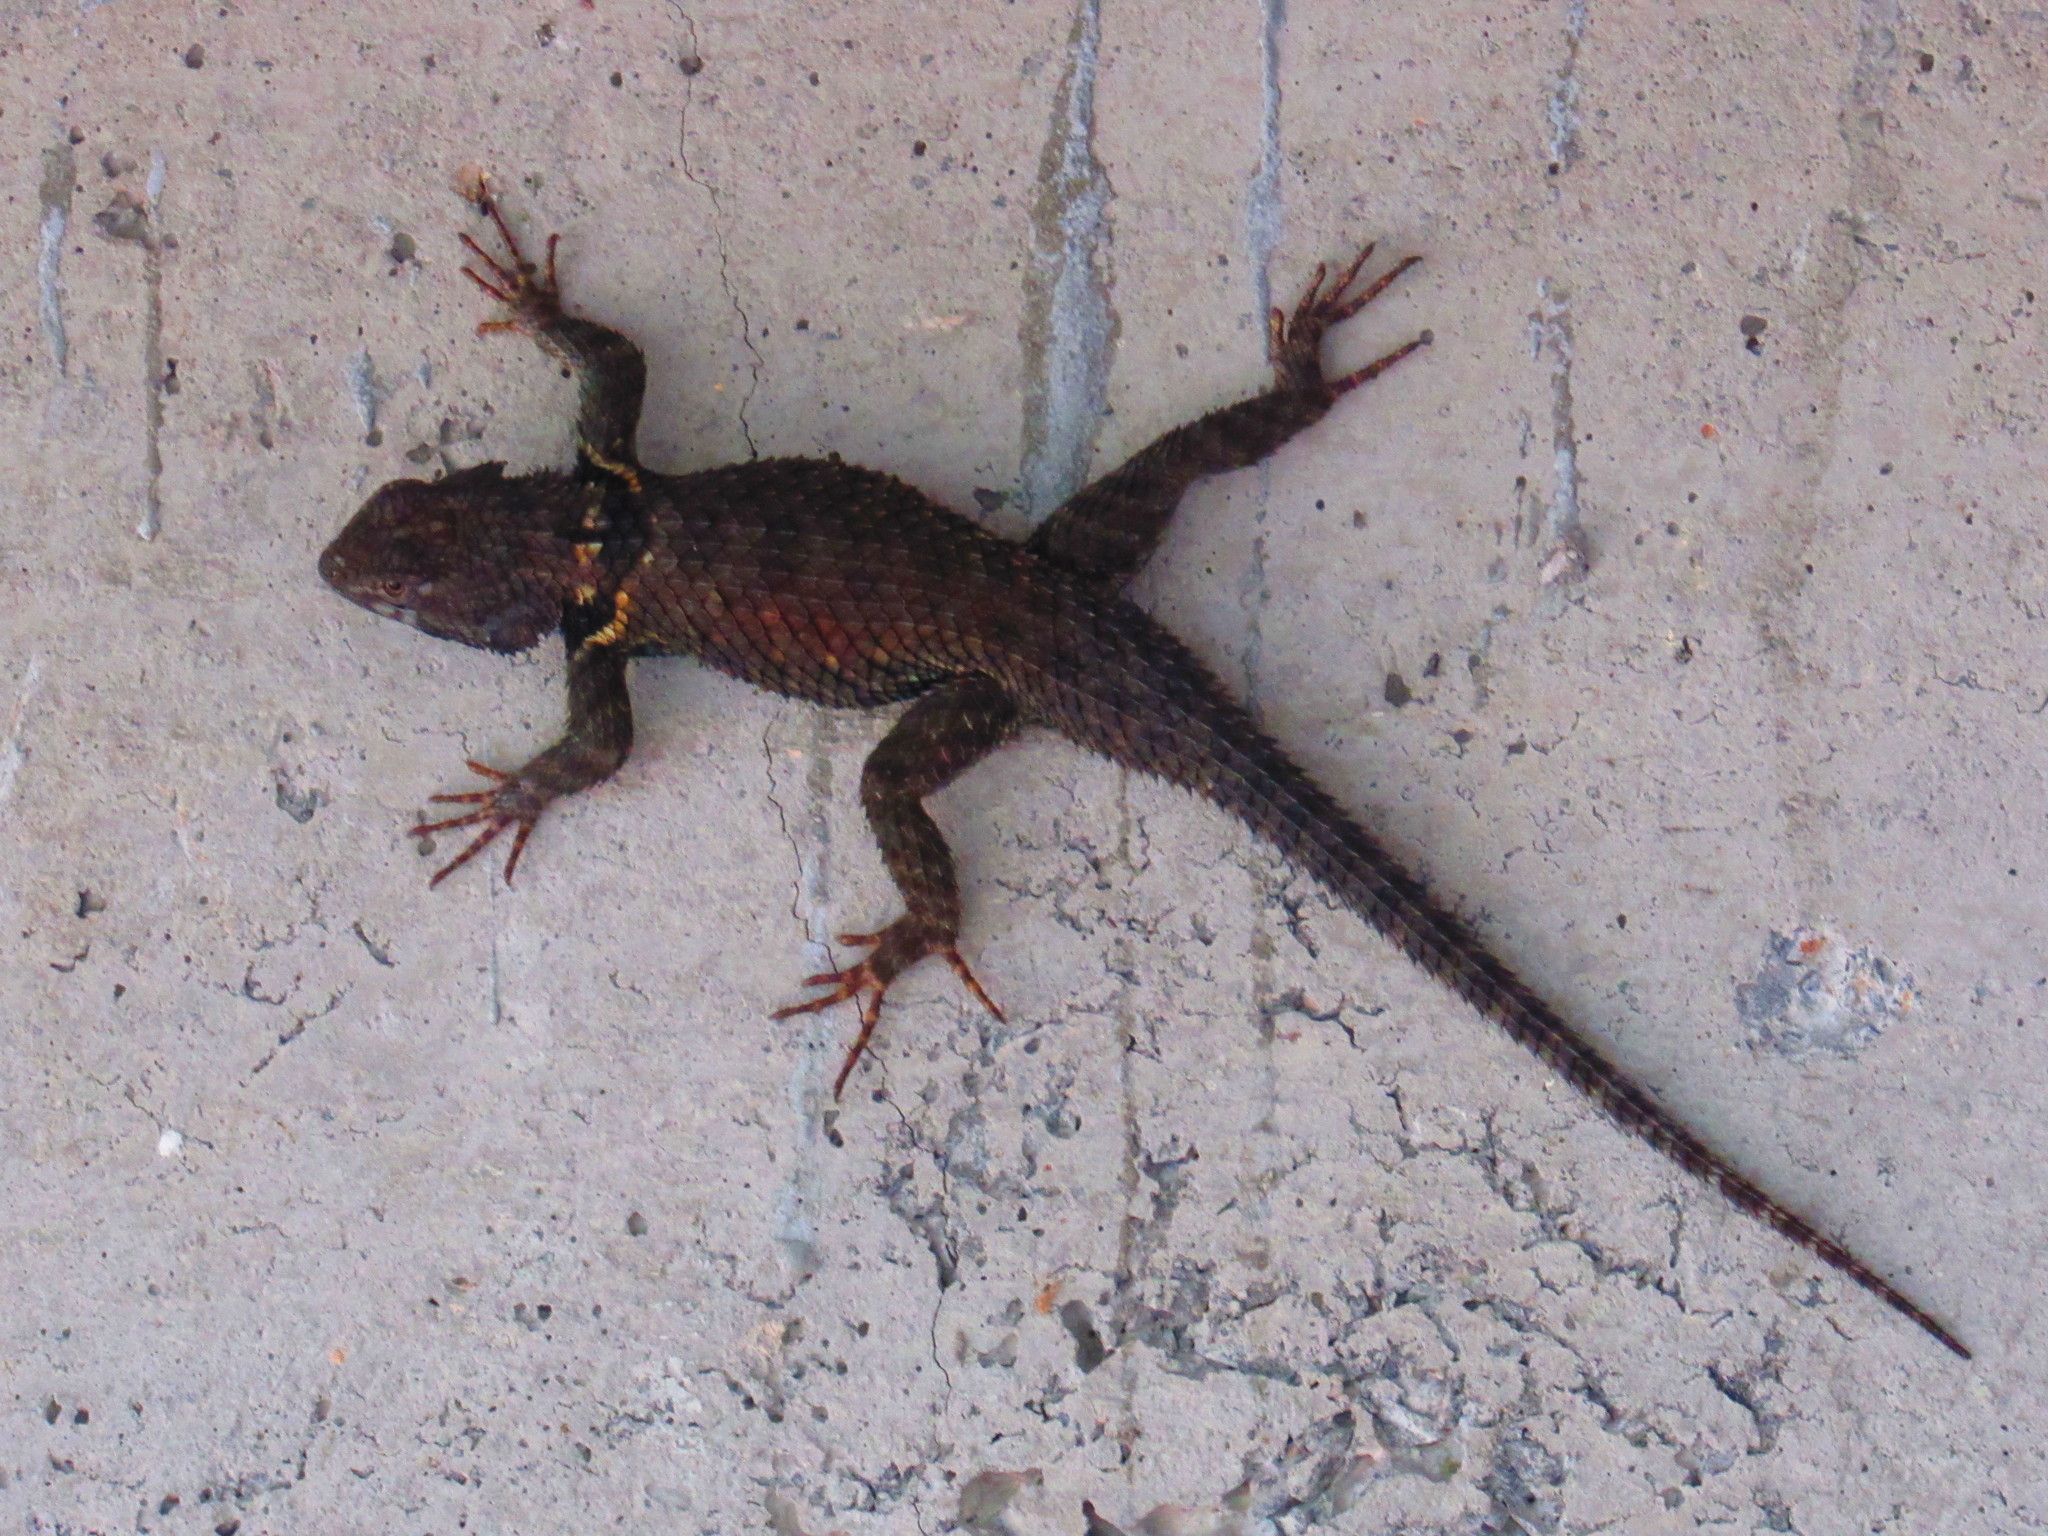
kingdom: Animalia
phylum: Chordata
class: Squamata
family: Phrynosomatidae
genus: Sceloporus
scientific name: Sceloporus torquatus
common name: Central plateau torquate lizard [melanogaster]
